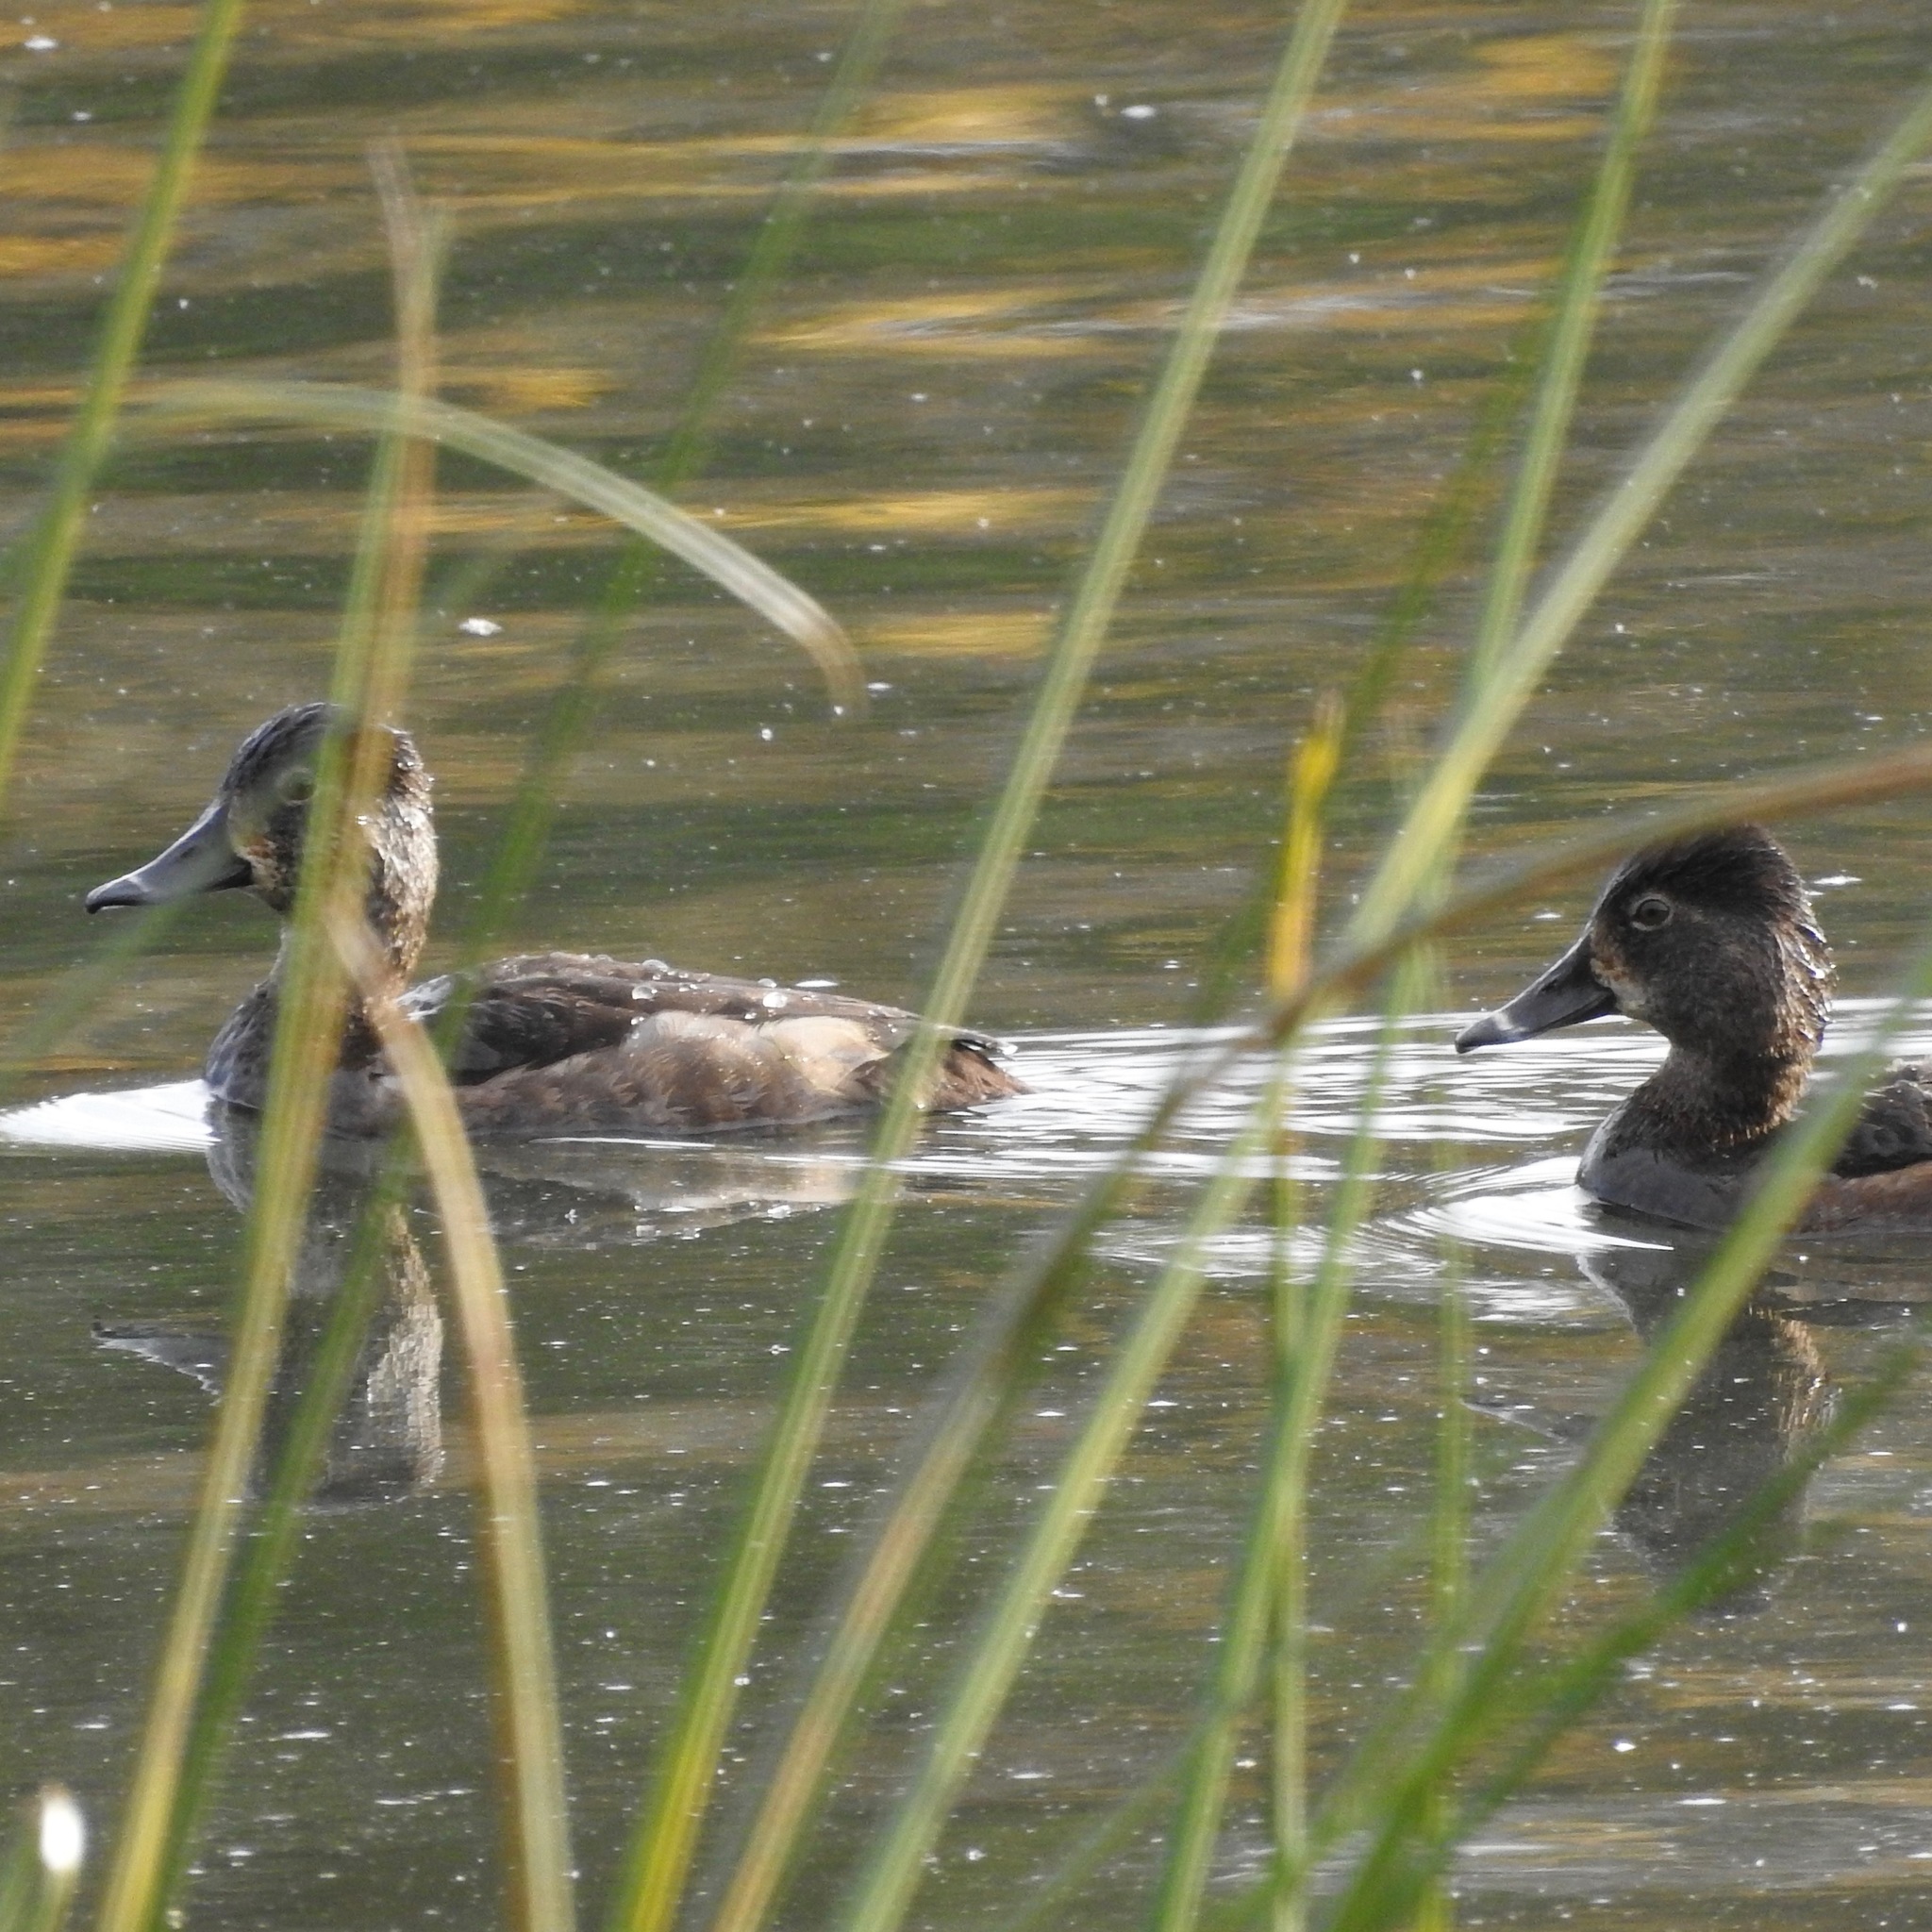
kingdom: Animalia
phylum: Chordata
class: Aves
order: Anseriformes
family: Anatidae
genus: Aythya
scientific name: Aythya collaris
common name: Ring-necked duck
